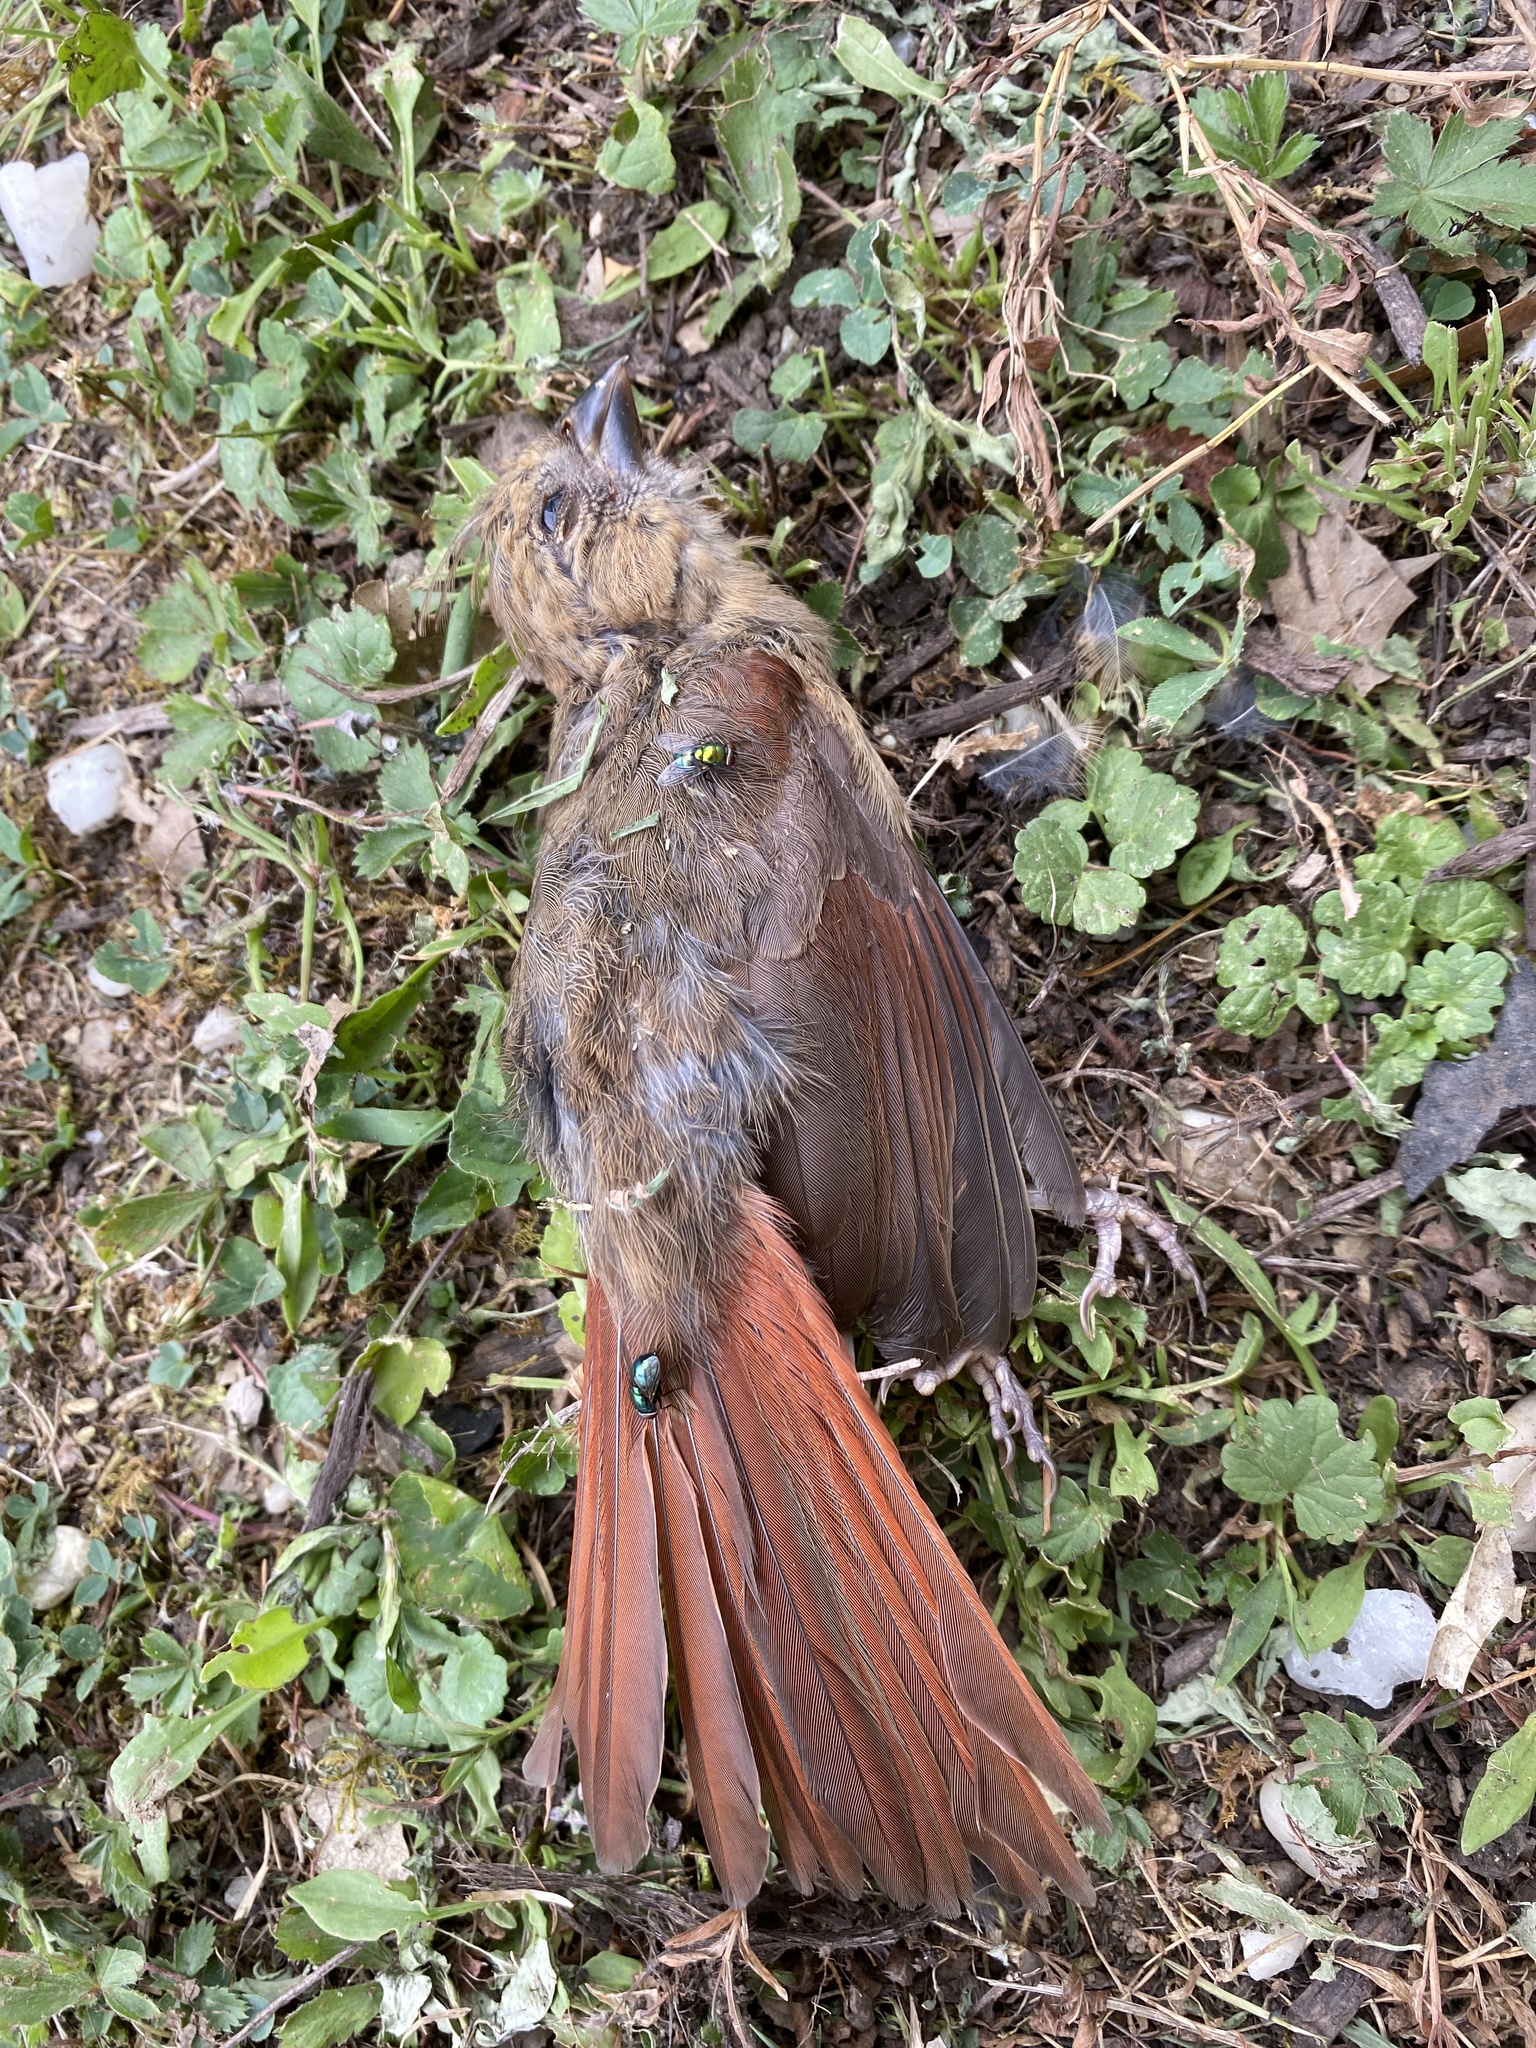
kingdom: Animalia
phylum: Chordata
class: Aves
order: Passeriformes
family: Cardinalidae
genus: Cardinalis
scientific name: Cardinalis cardinalis
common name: Northern cardinal
